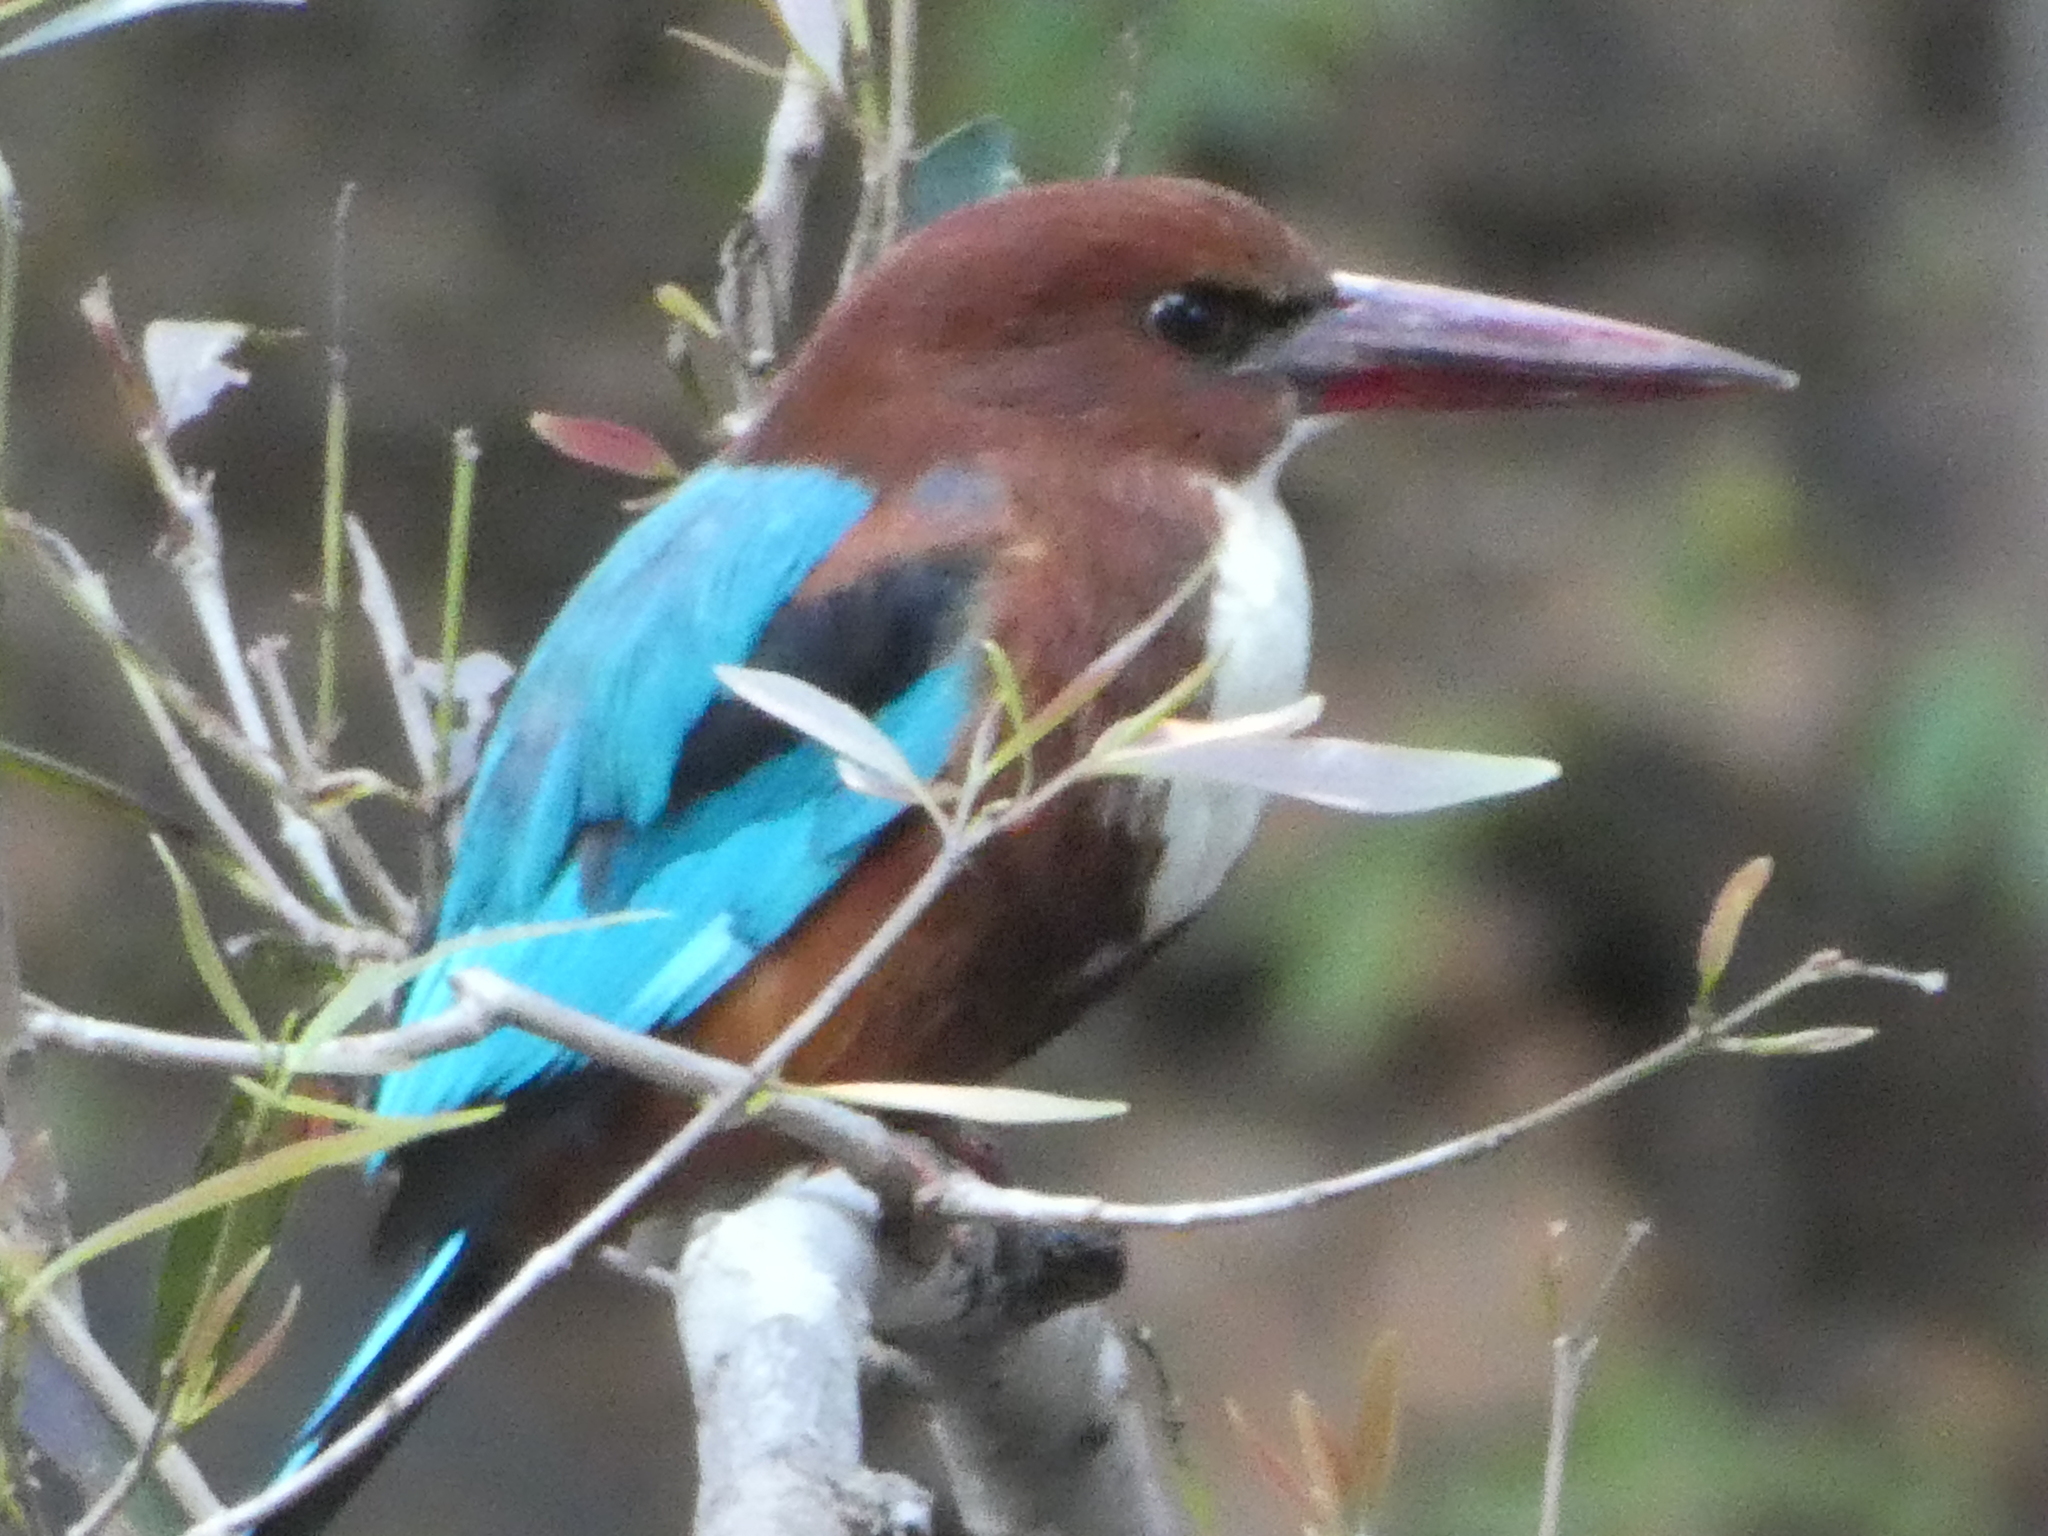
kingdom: Animalia
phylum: Chordata
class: Aves
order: Coraciiformes
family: Alcedinidae
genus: Halcyon
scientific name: Halcyon smyrnensis
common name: White-throated kingfisher
